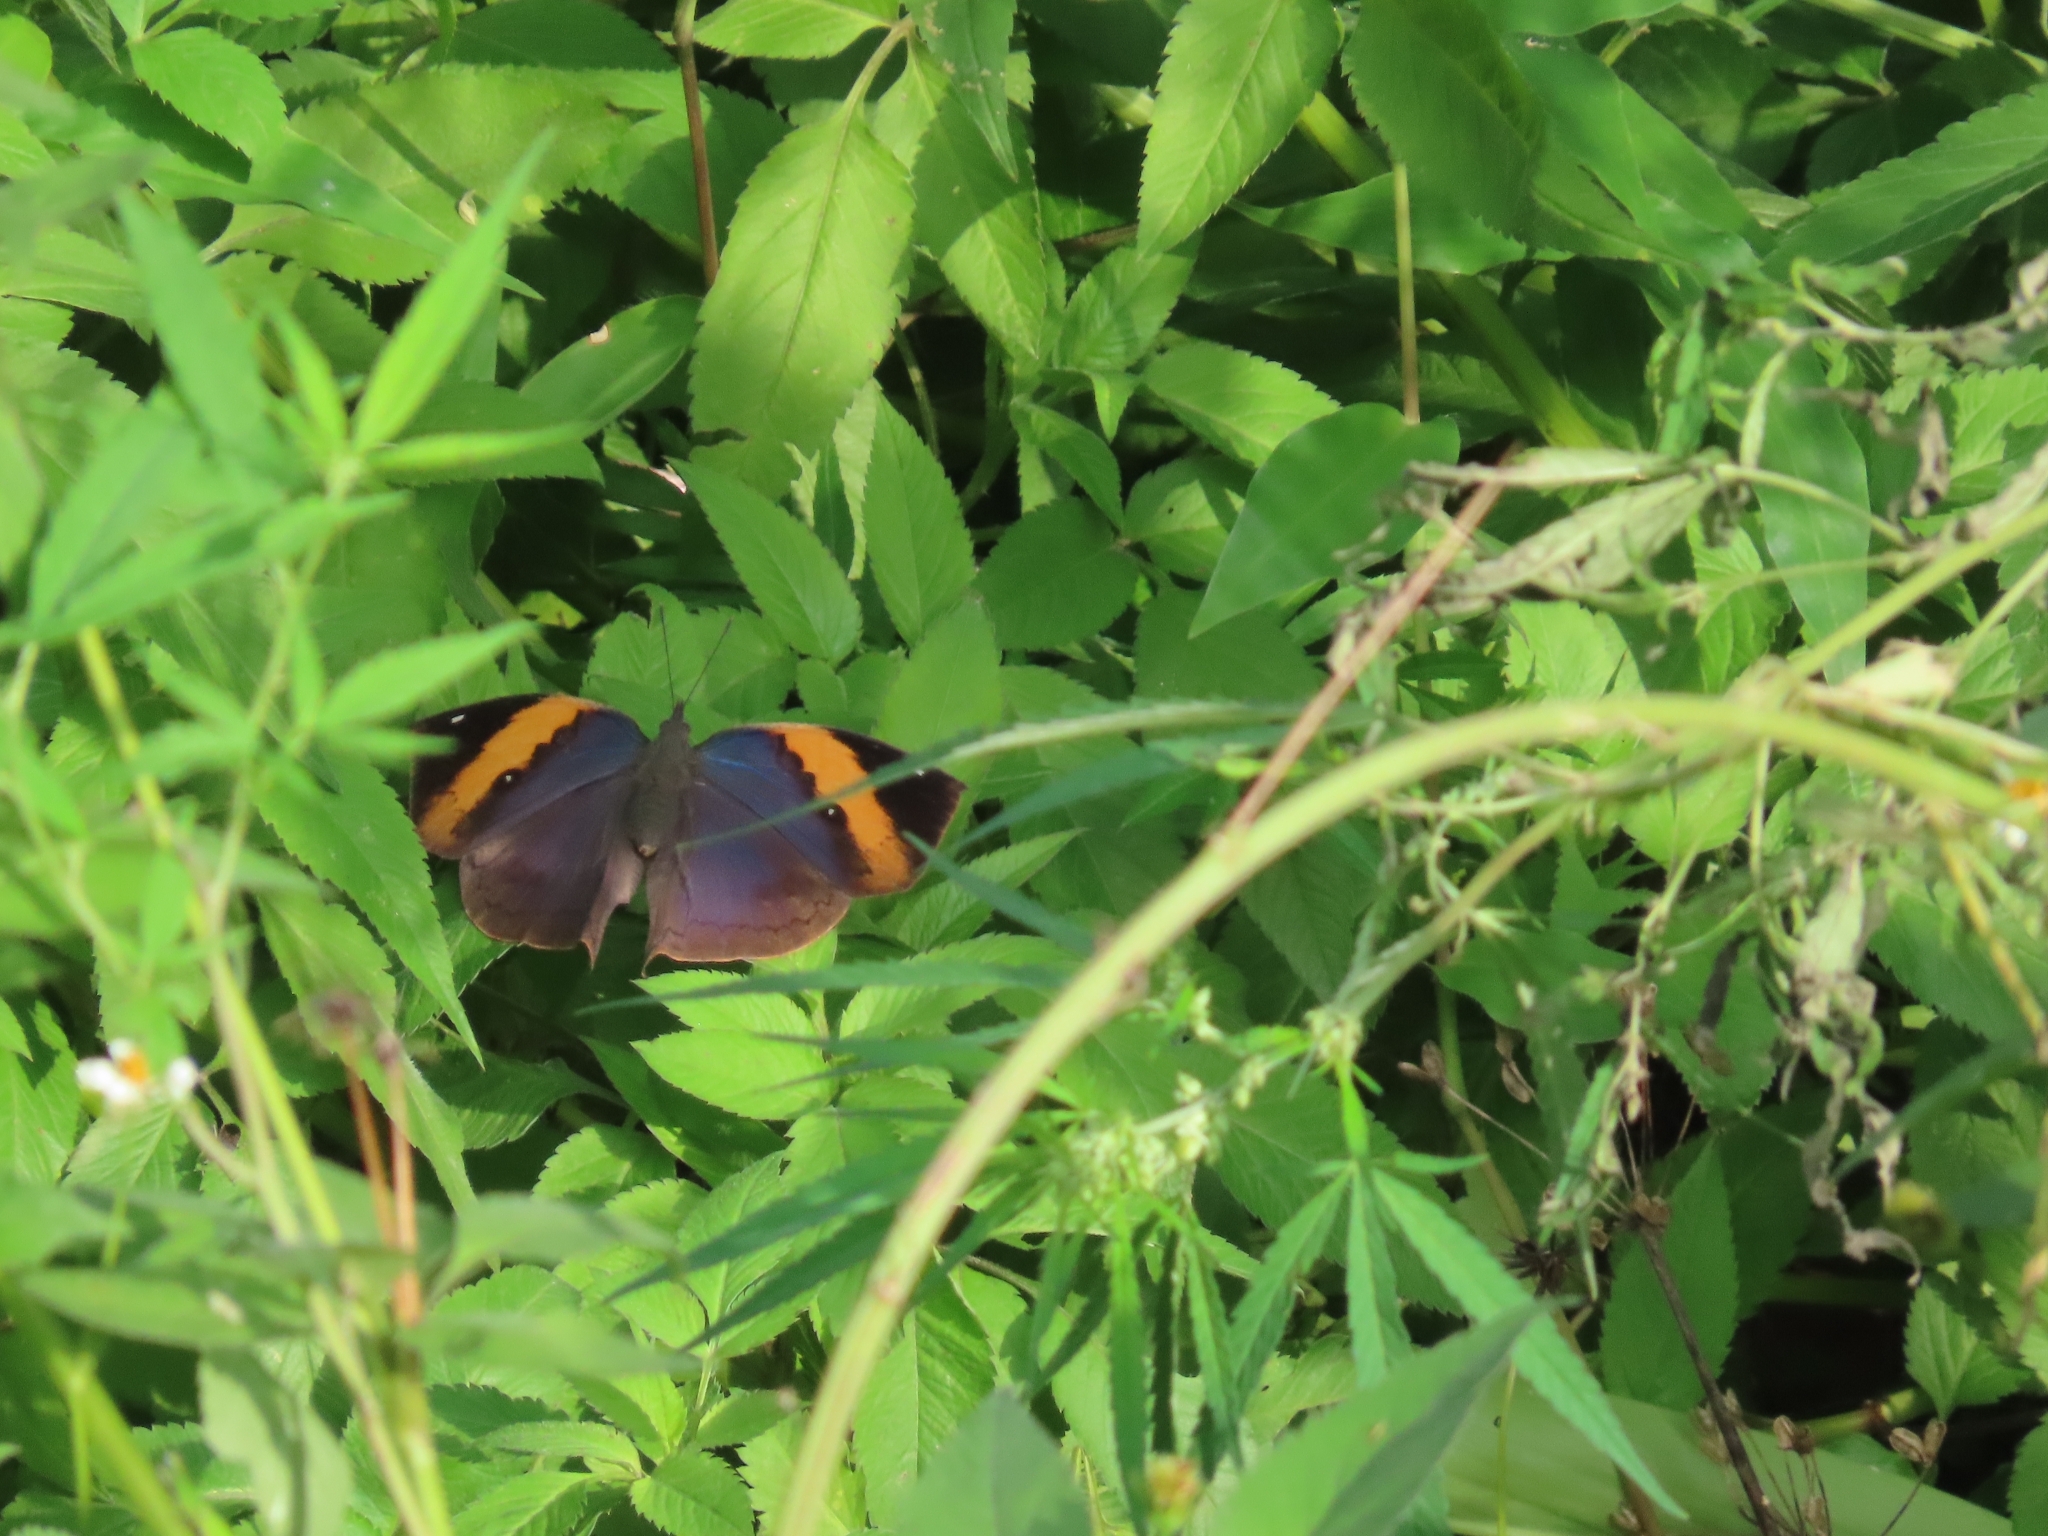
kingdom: Animalia
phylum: Arthropoda
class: Insecta
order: Lepidoptera
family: Nymphalidae
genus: Kallima
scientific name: Kallima inachus
